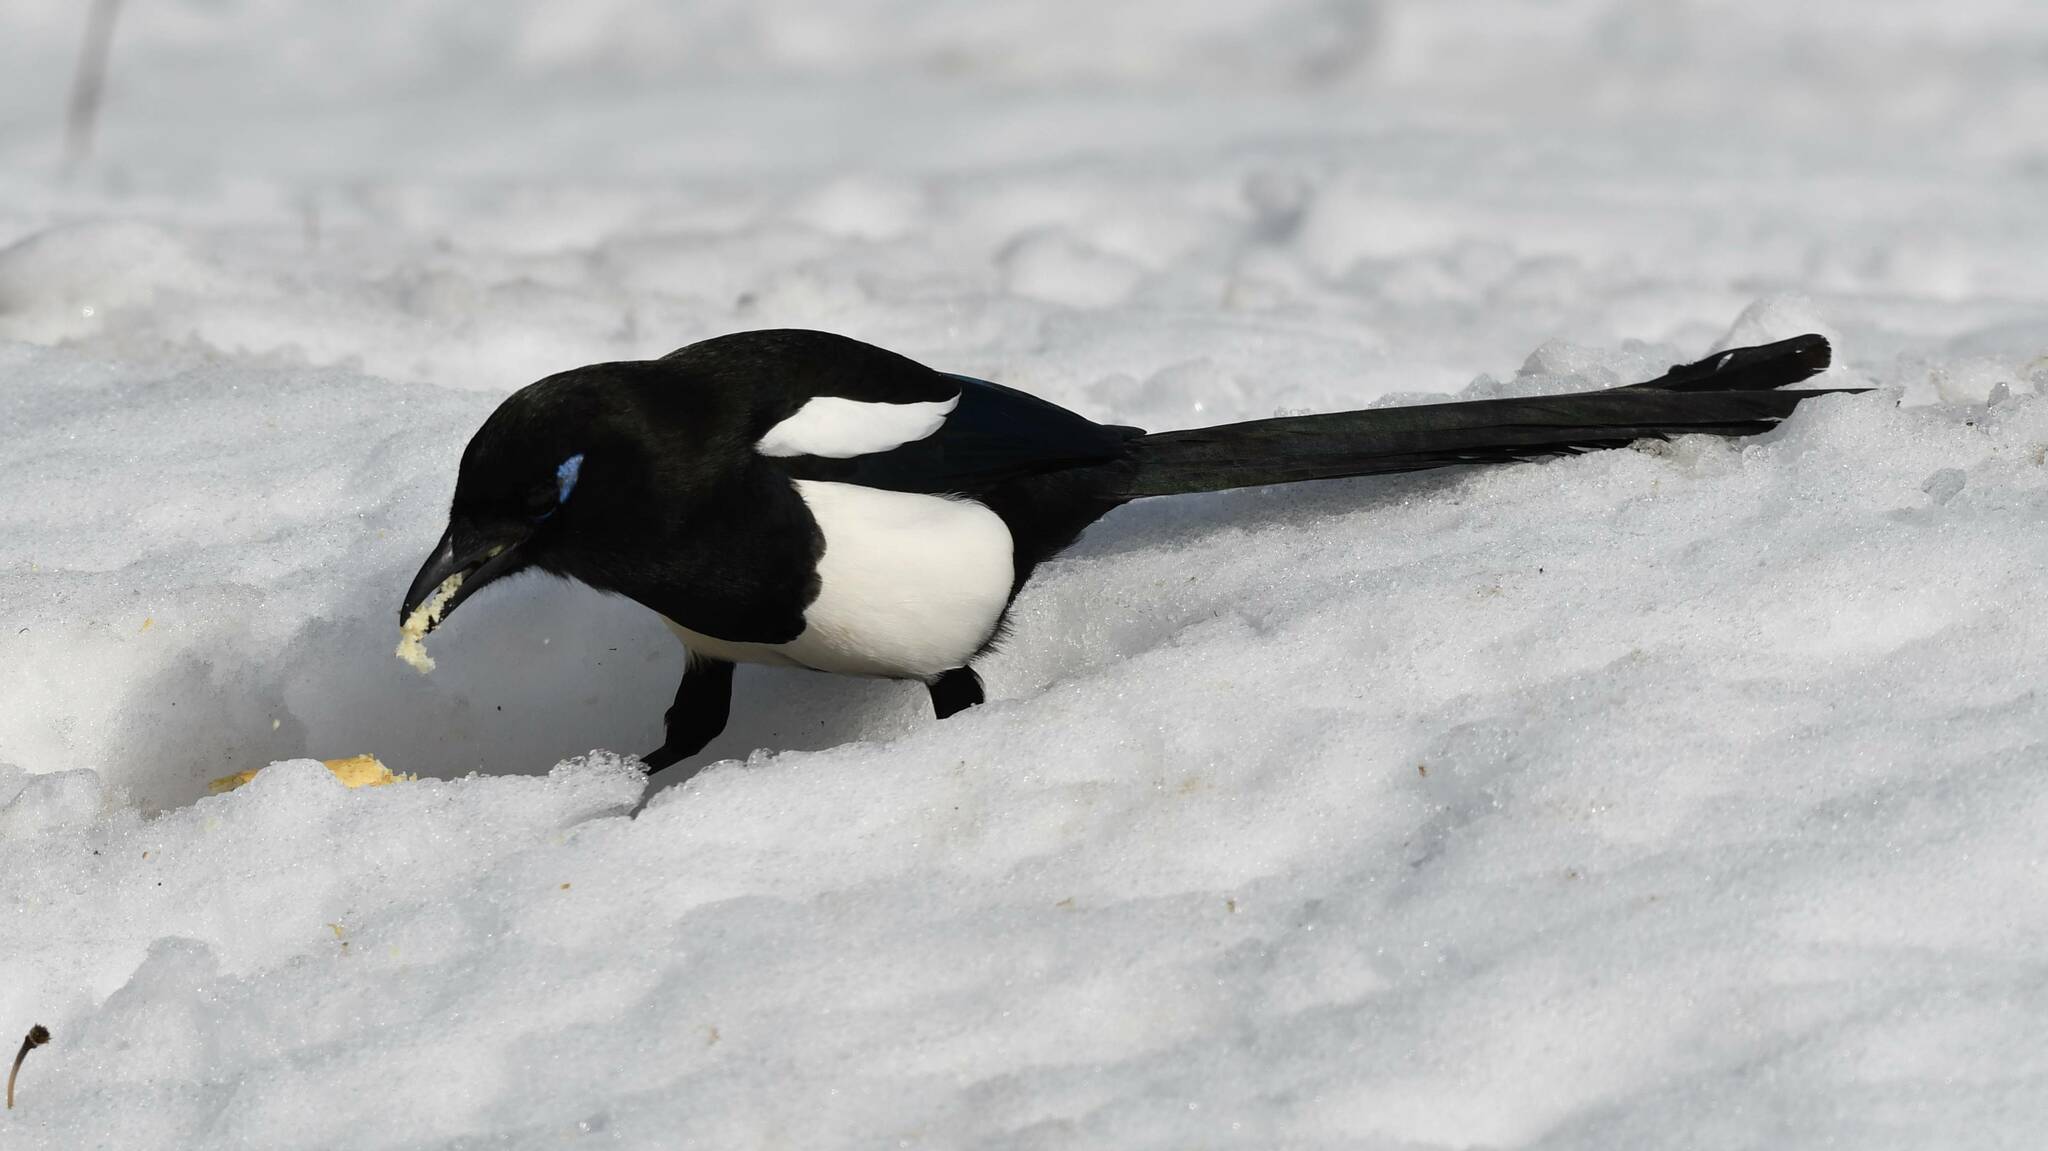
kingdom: Animalia
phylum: Chordata
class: Aves
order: Passeriformes
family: Corvidae
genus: Pica
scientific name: Pica mauritanica
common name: Maghreb magpie
